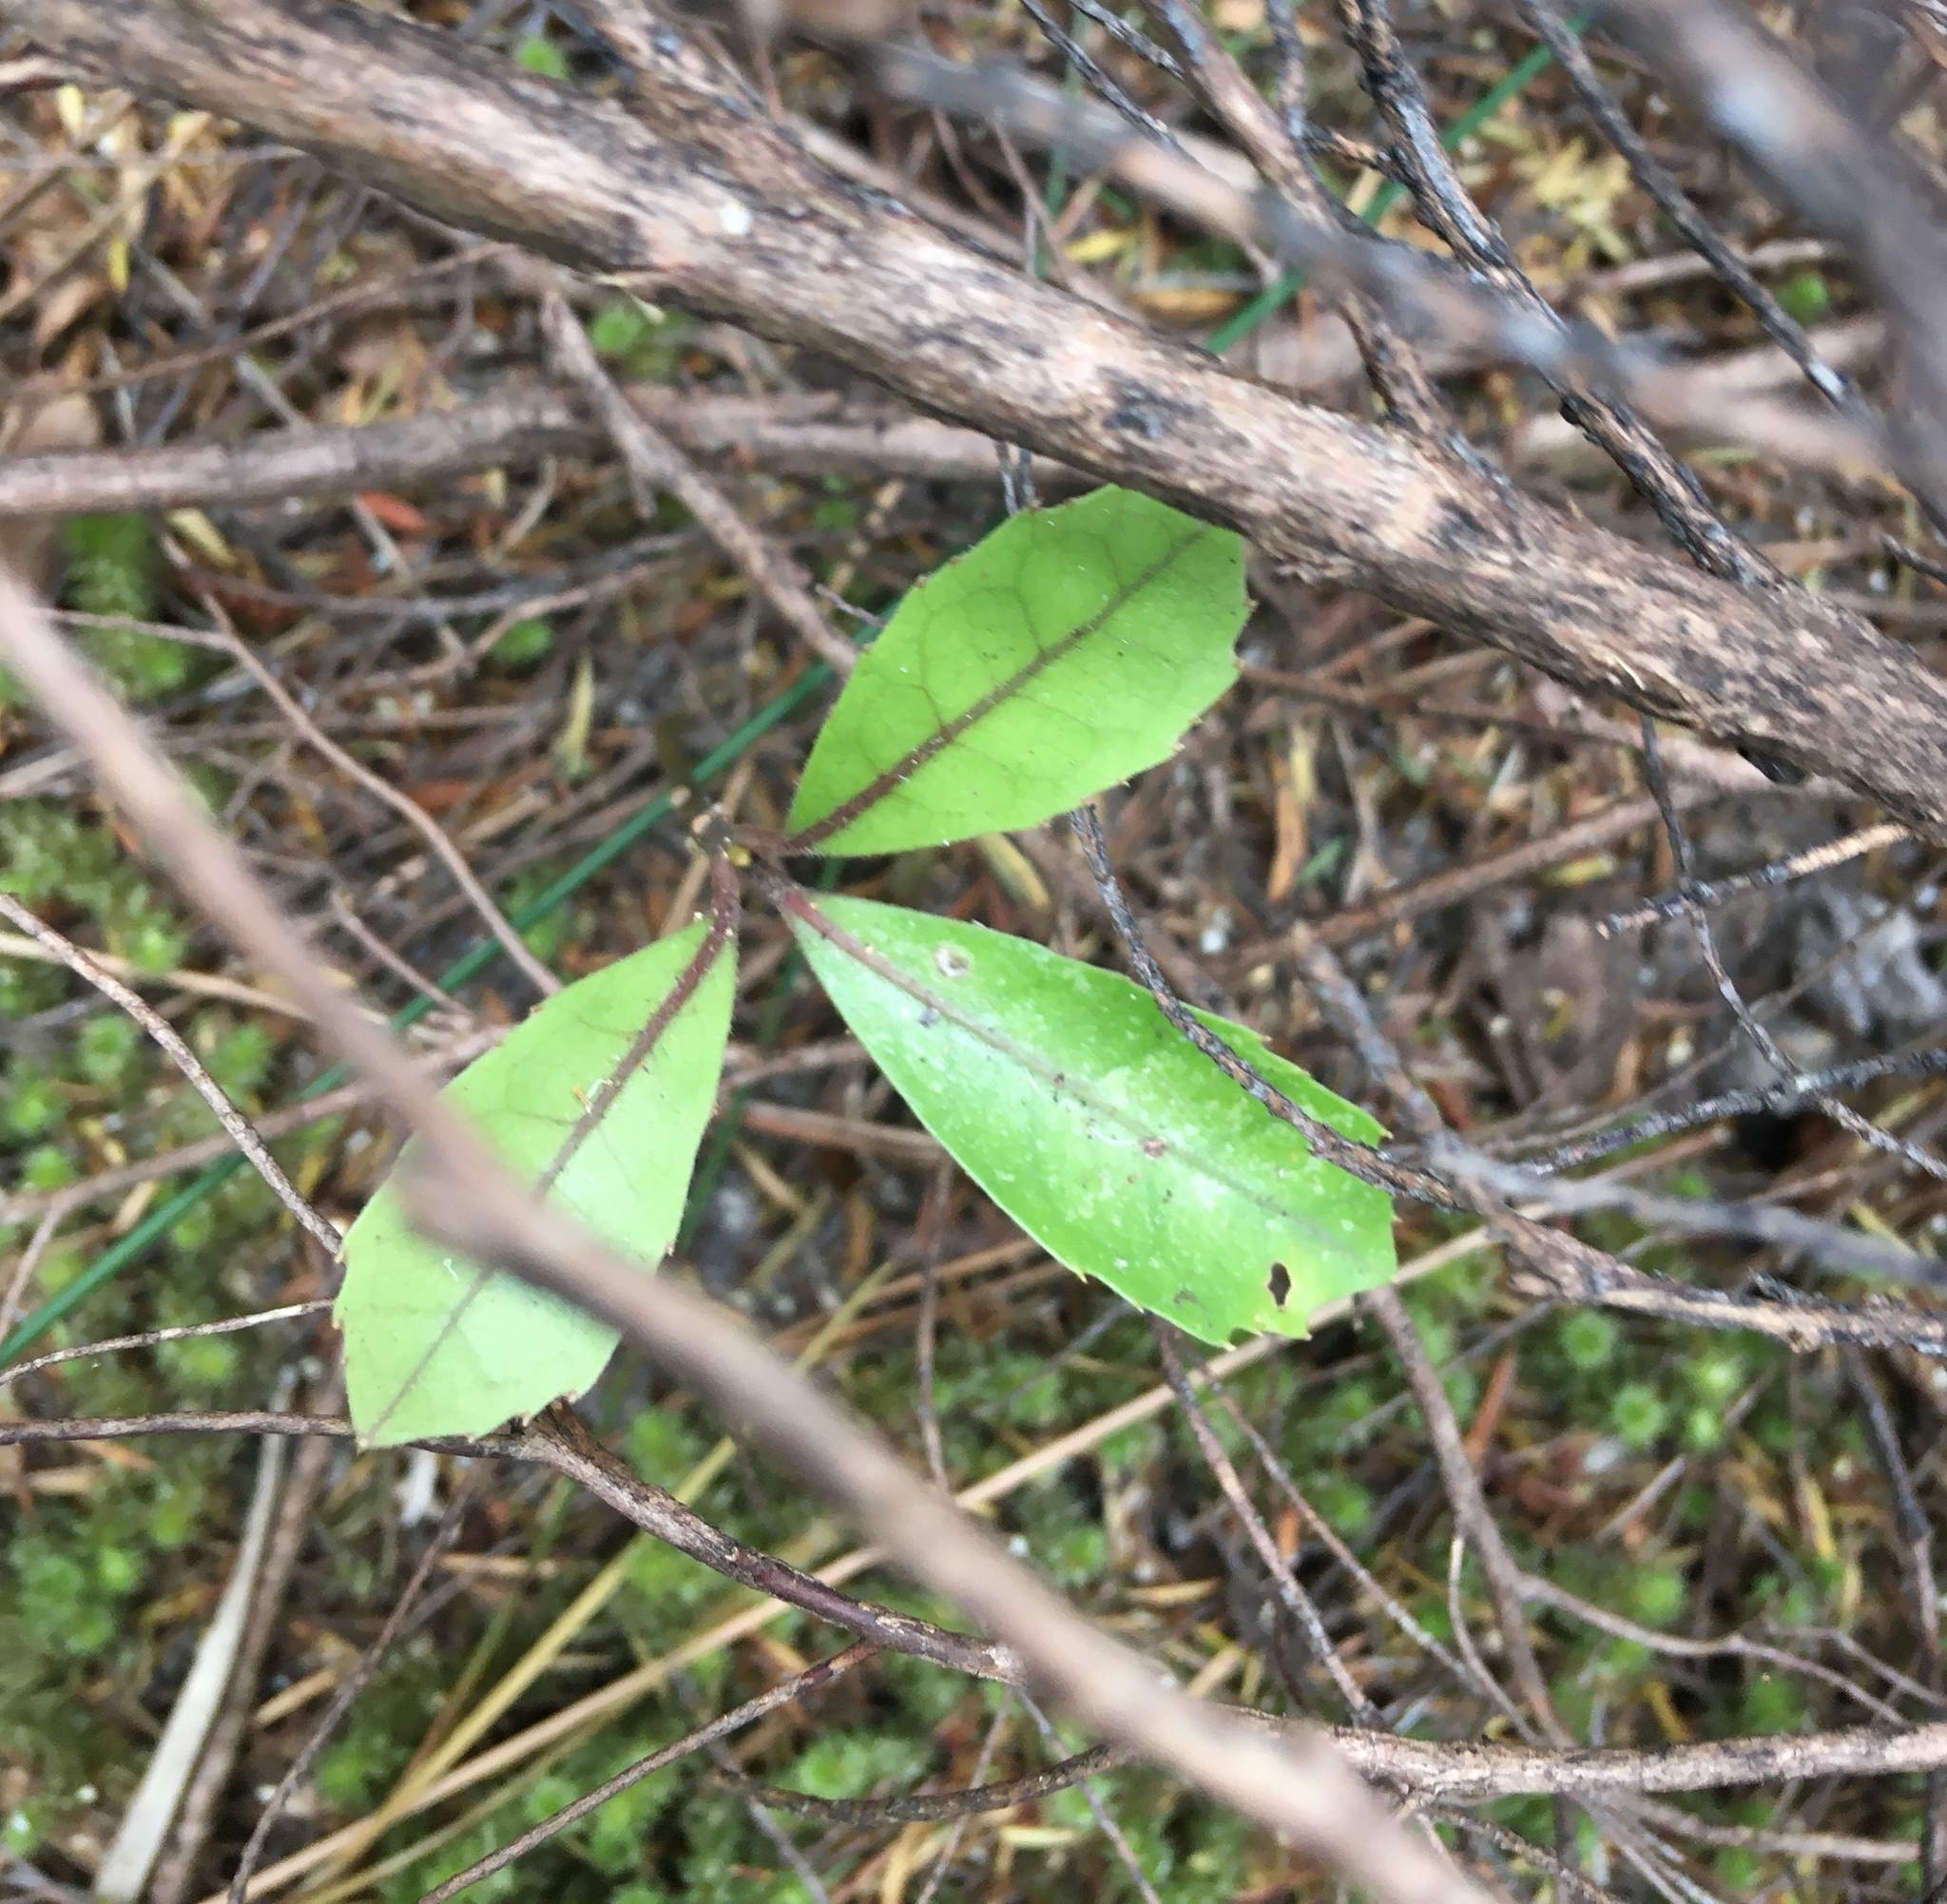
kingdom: Plantae
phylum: Tracheophyta
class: Magnoliopsida
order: Laurales
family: Monimiaceae
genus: Hedycarya
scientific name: Hedycarya arborea
